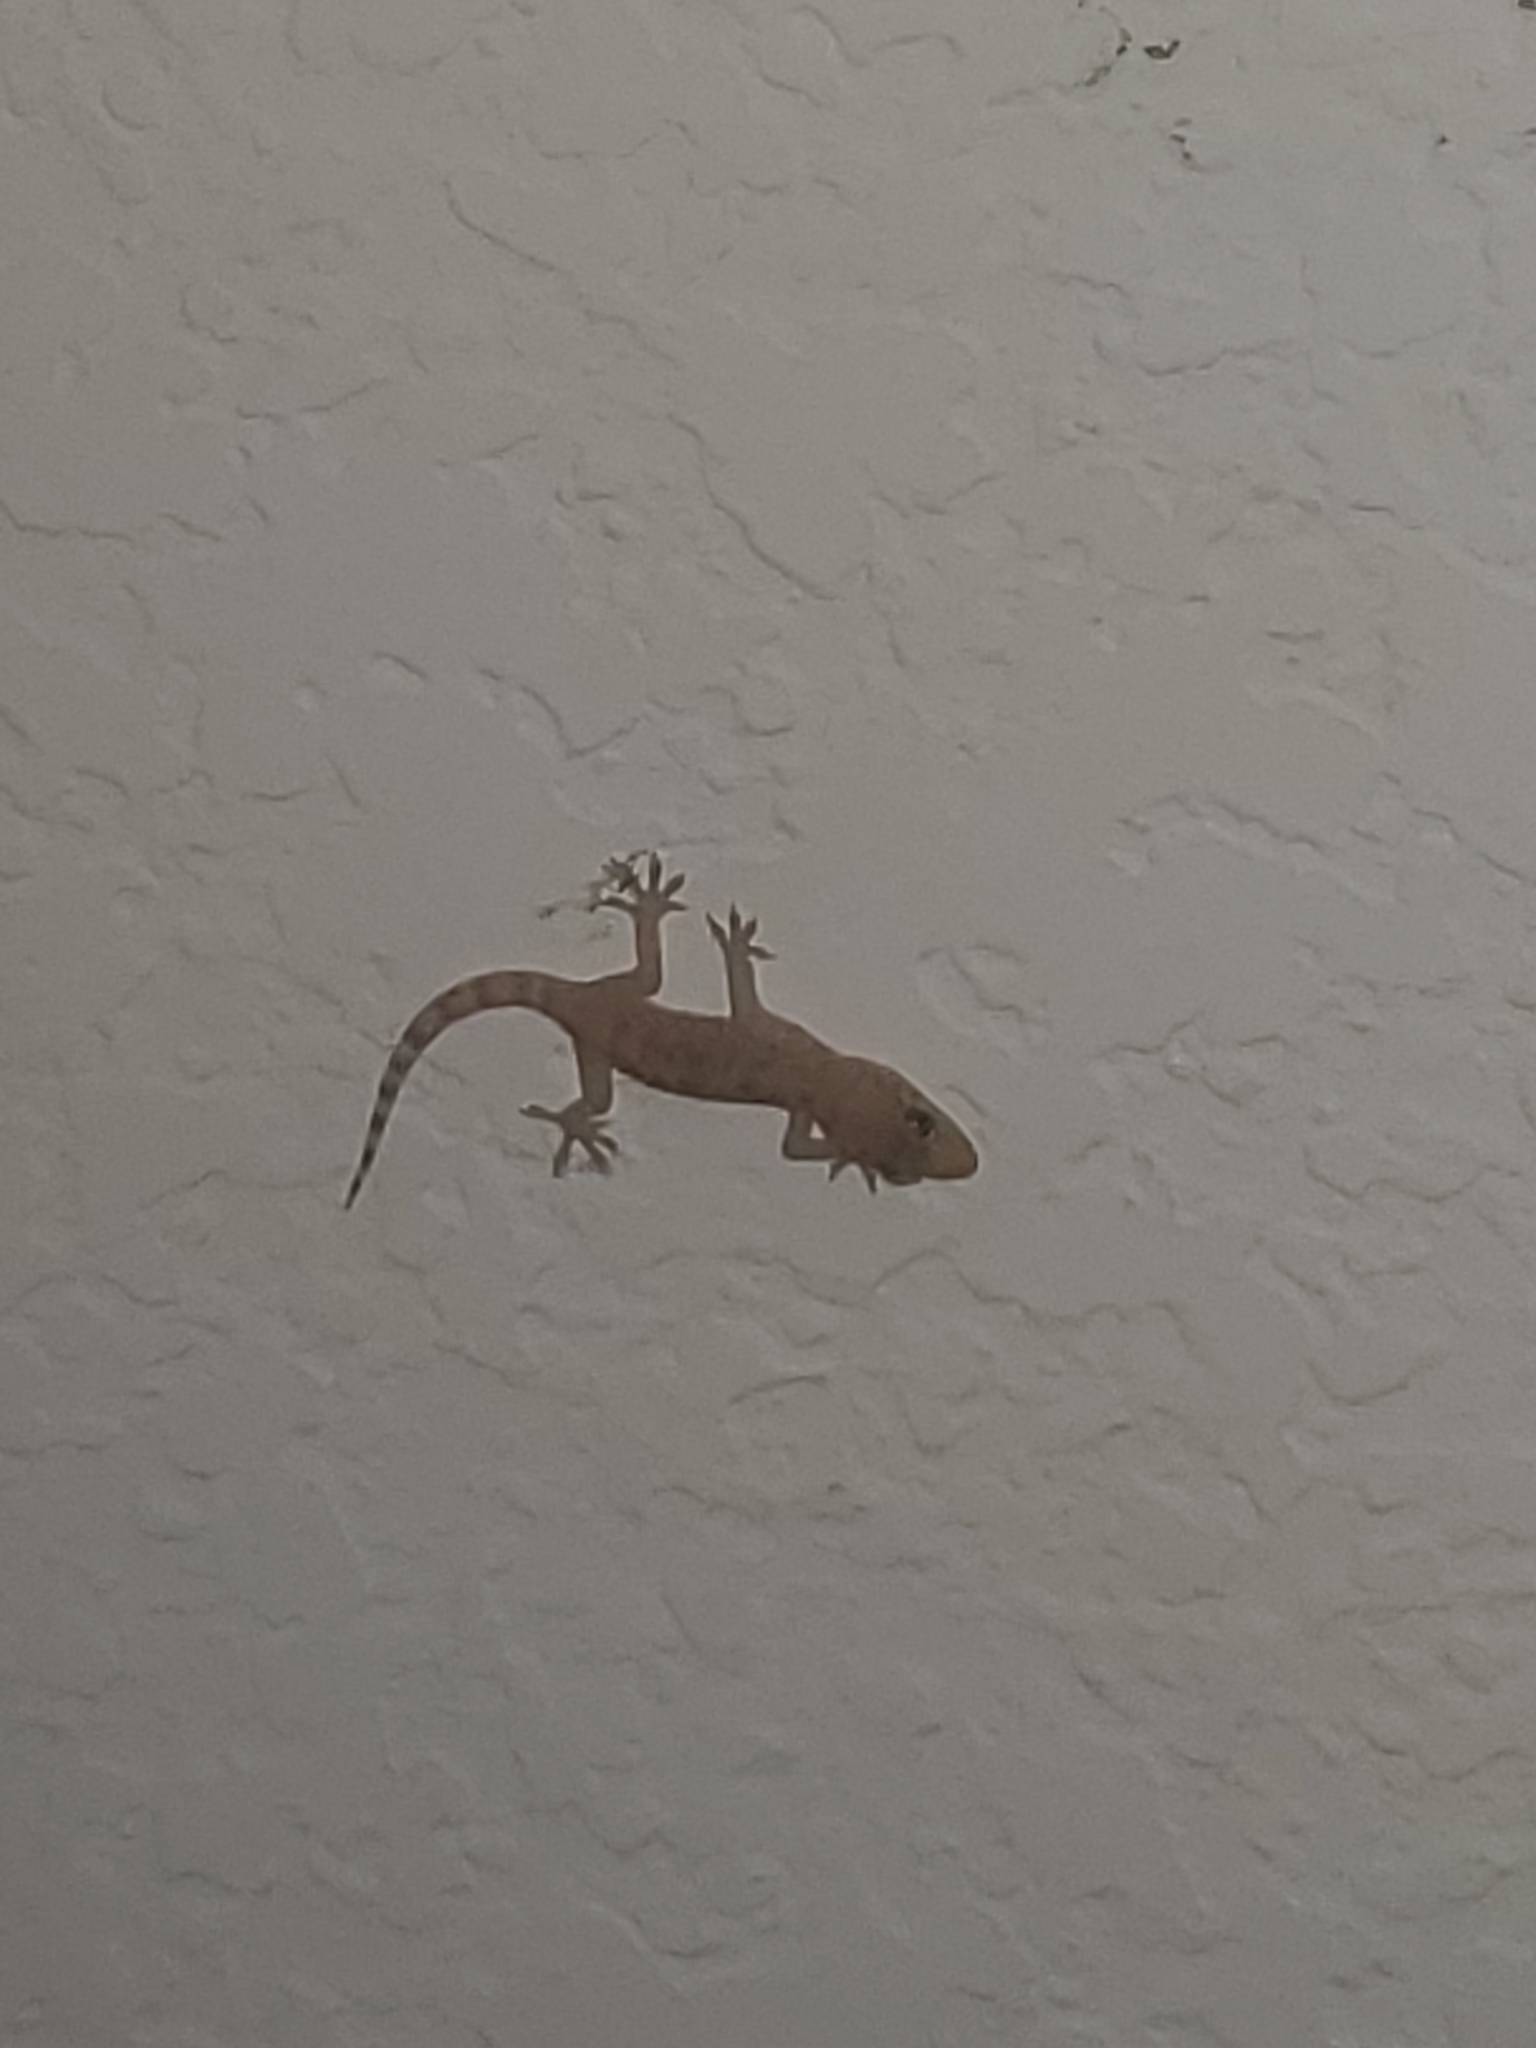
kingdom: Animalia
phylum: Chordata
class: Squamata
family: Gekkonidae
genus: Hemidactylus
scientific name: Hemidactylus turcicus
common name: Turkish gecko
